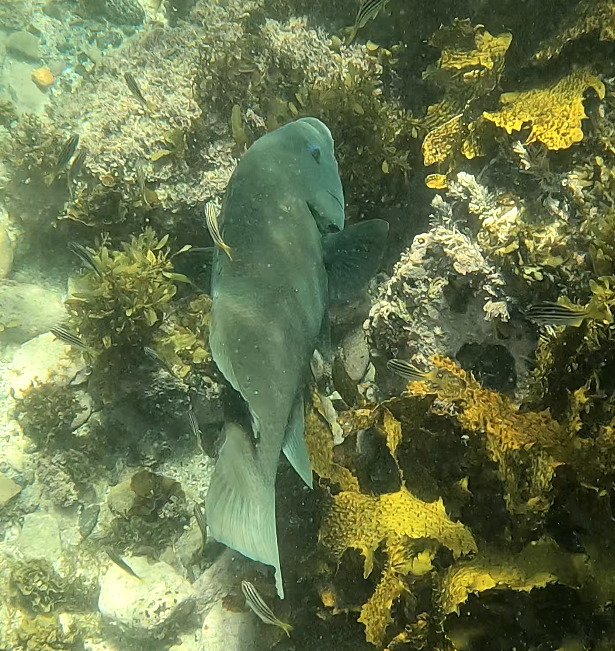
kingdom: Animalia
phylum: Chordata
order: Perciformes
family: Labridae
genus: Achoerodus
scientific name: Achoerodus viridis
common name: Brown groper
